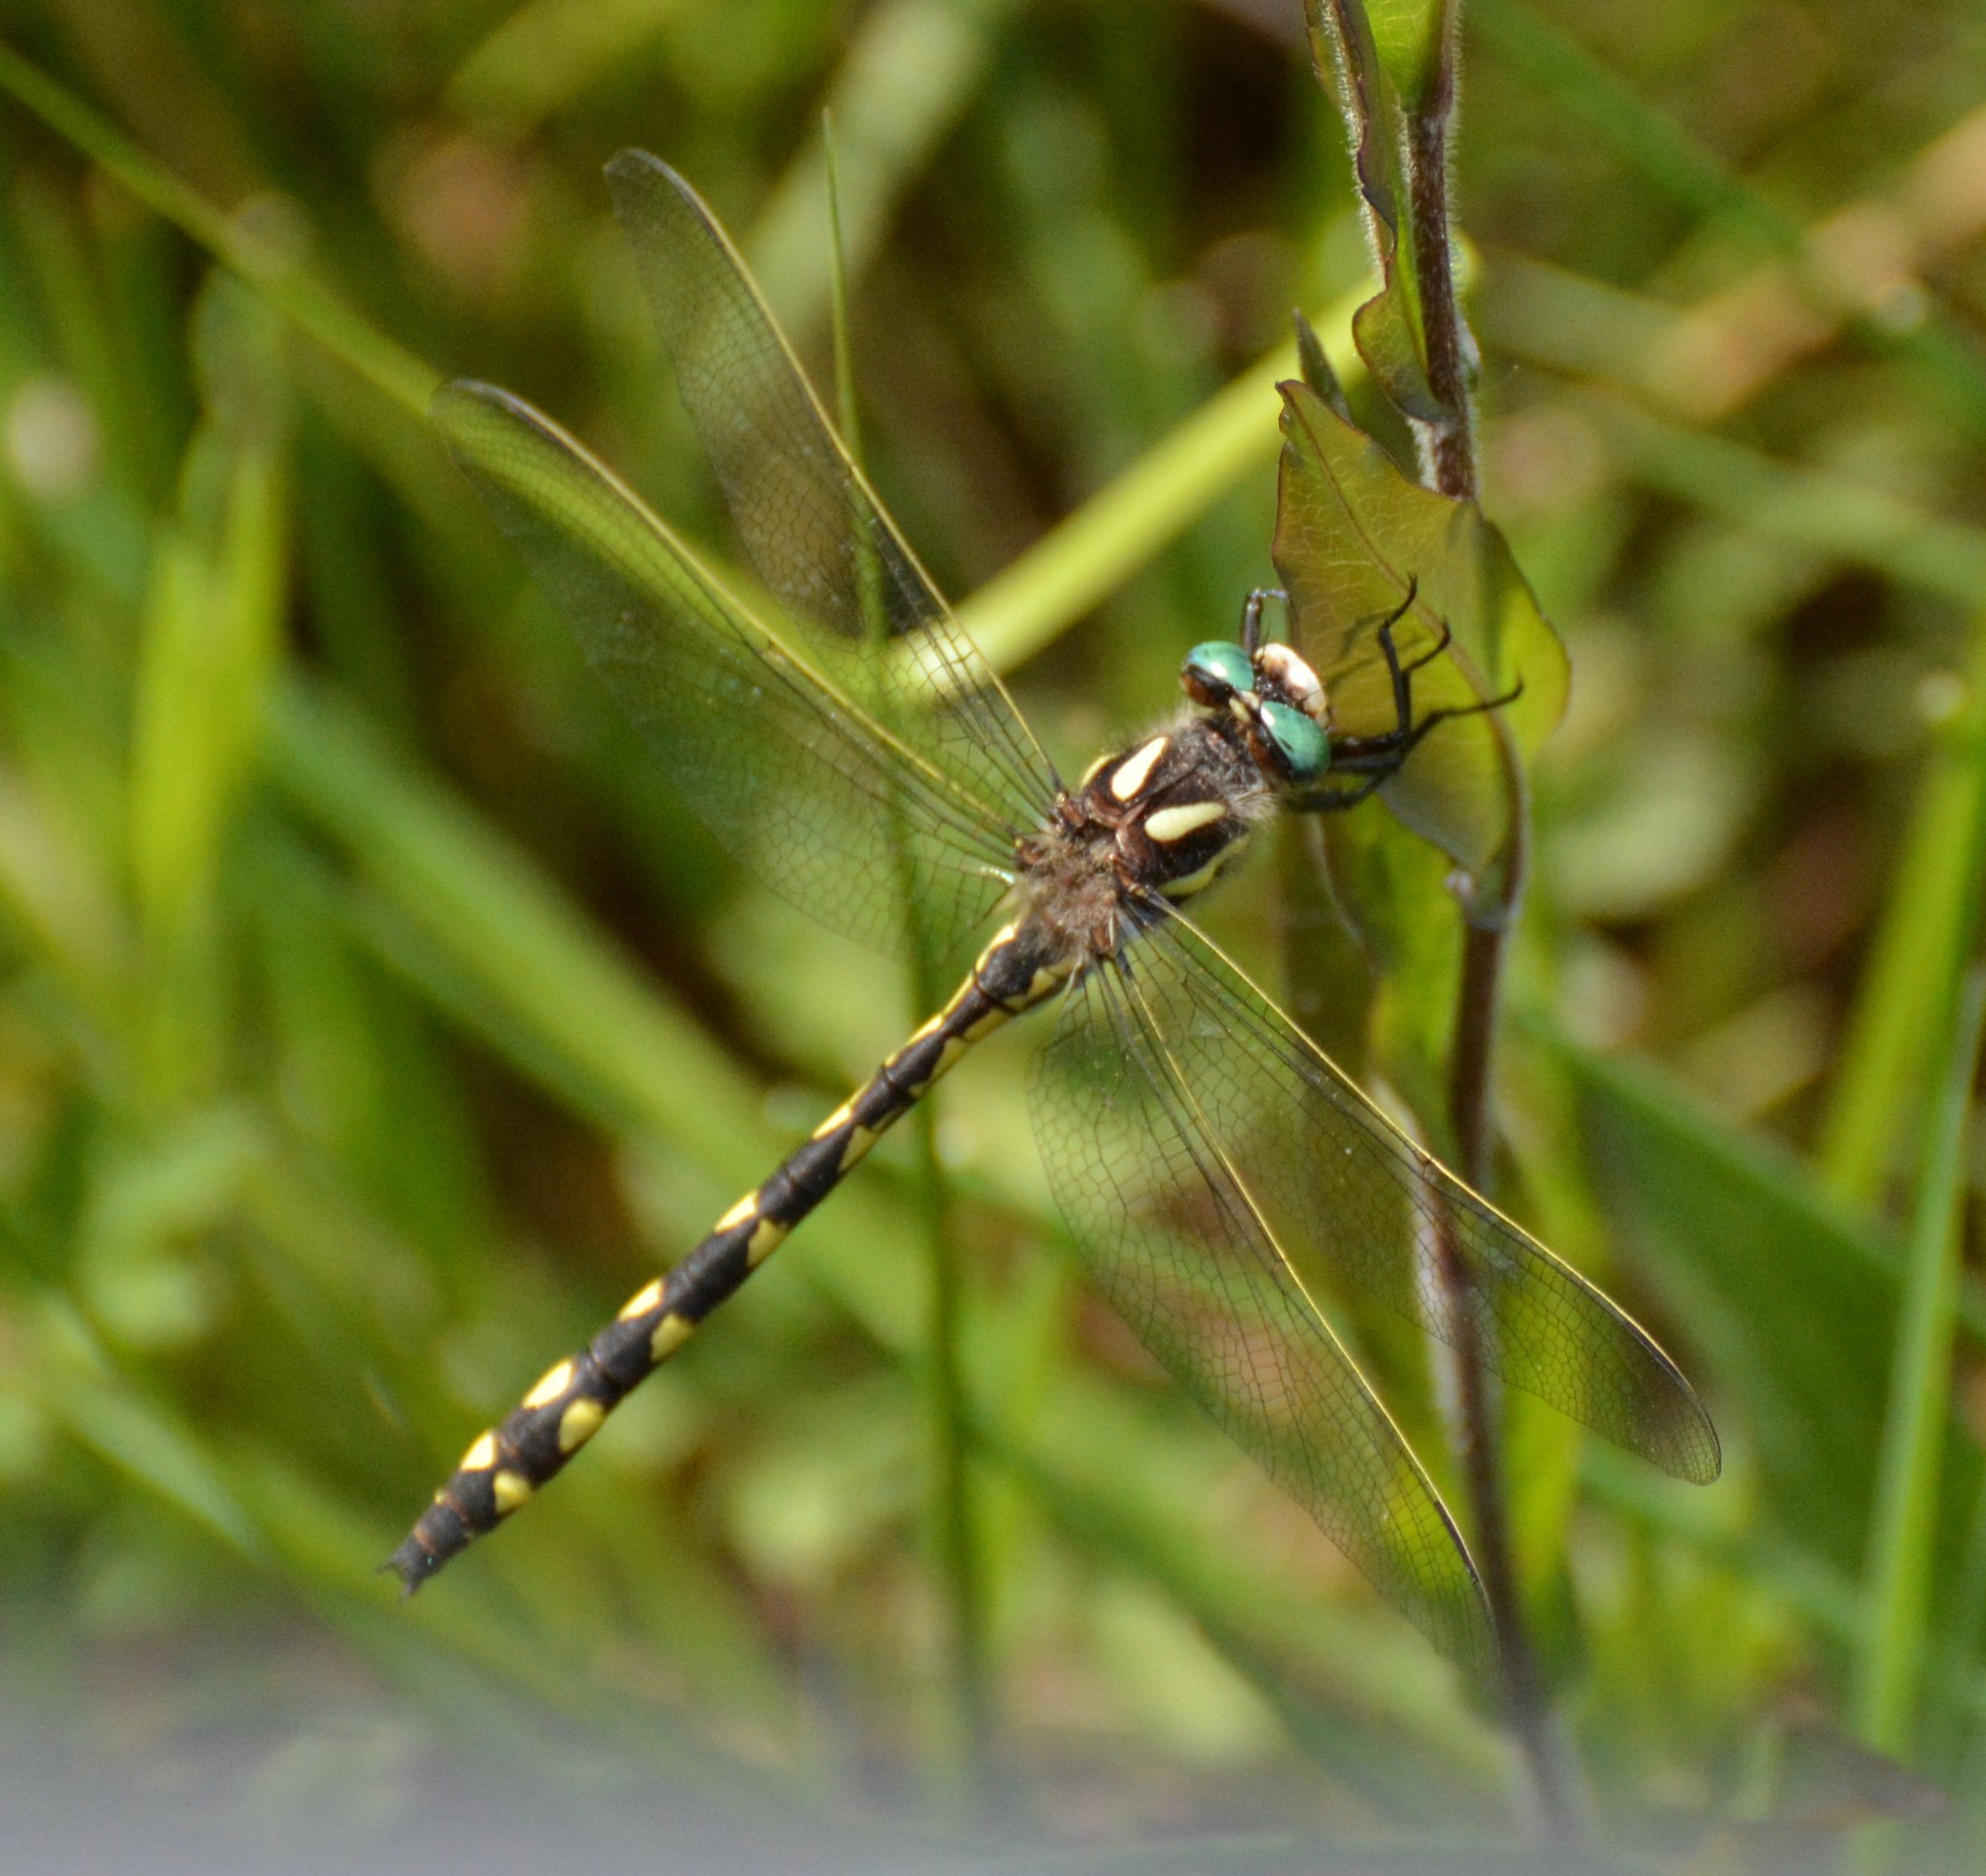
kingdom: Animalia
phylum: Arthropoda
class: Insecta
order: Odonata
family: Cordulegastridae
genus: Cordulegaster
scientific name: Cordulegaster diastatops
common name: Delta-spotted spiketail
